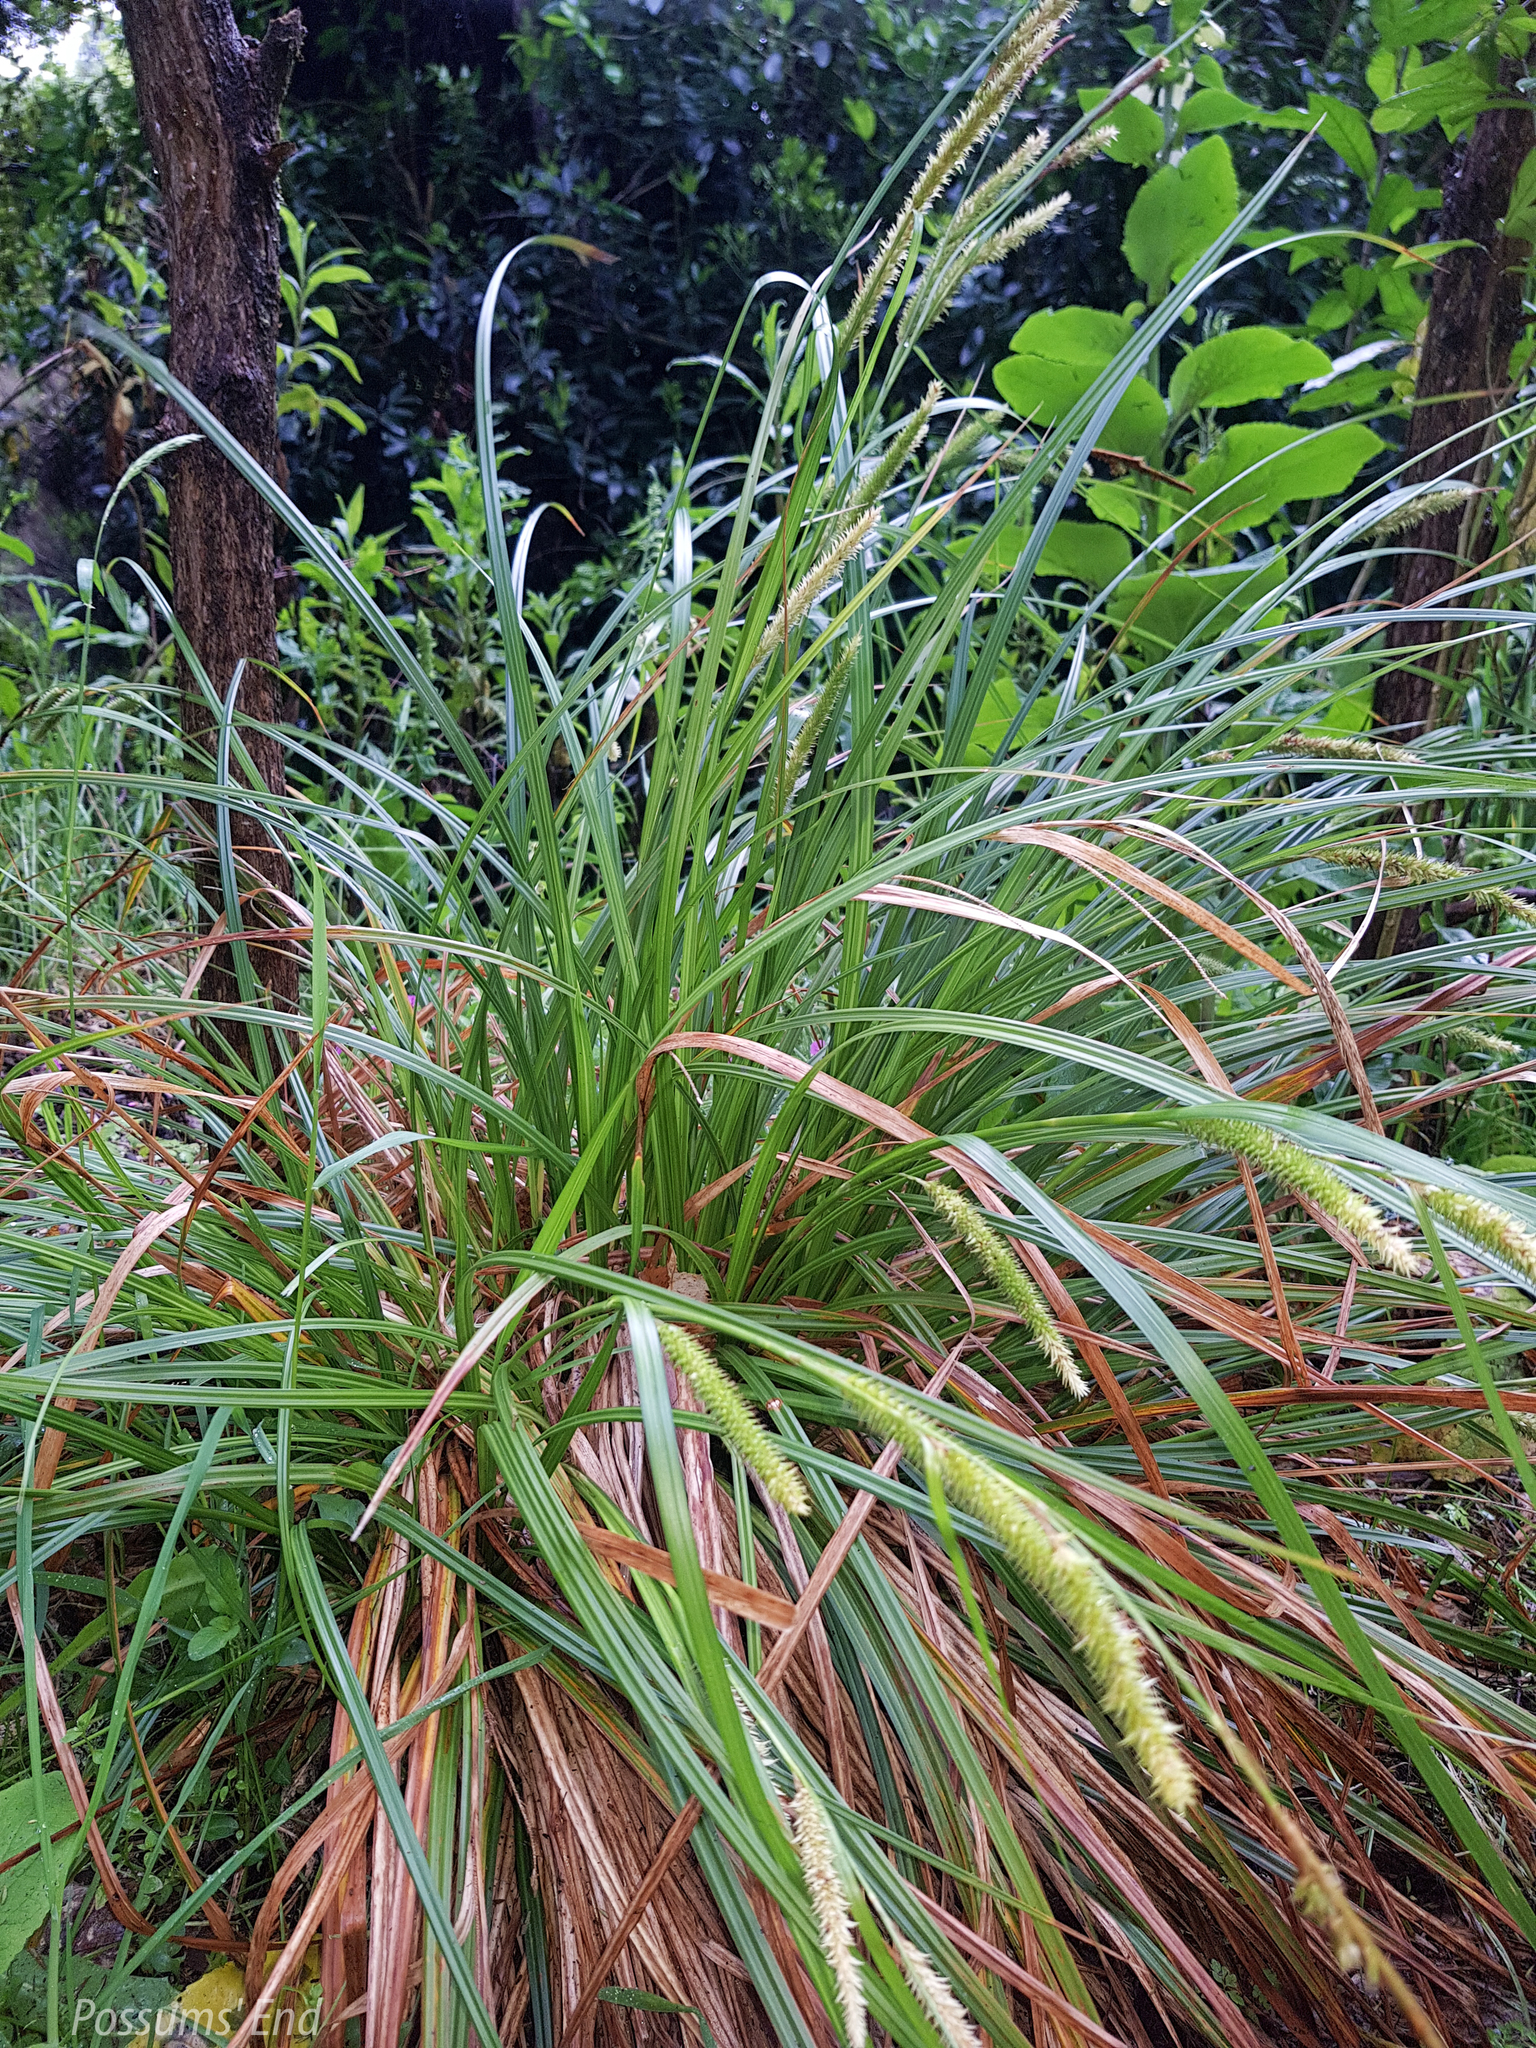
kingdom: Plantae
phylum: Tracheophyta
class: Liliopsida
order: Poales
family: Cyperaceae
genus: Carex
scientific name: Carex forsteri
